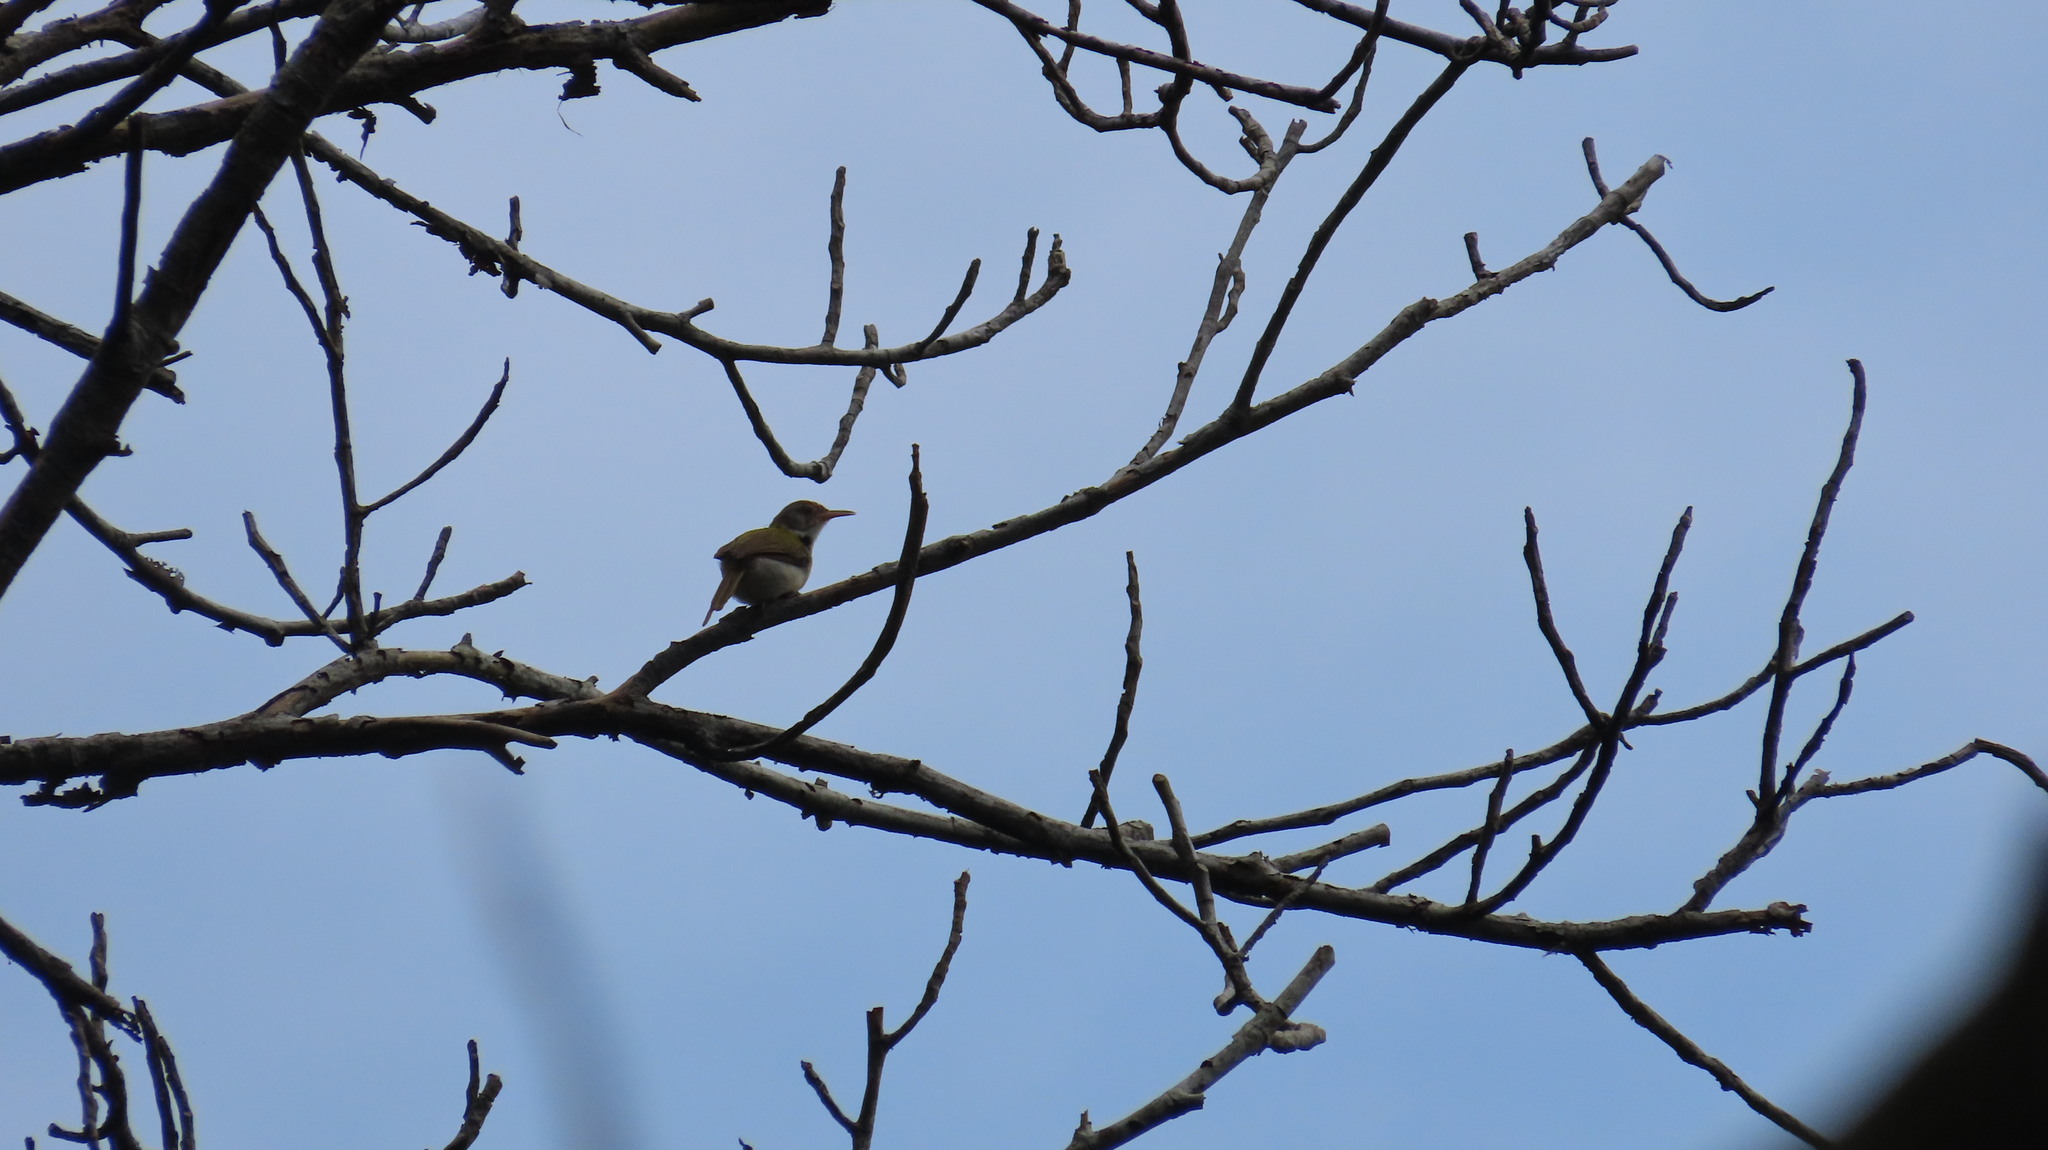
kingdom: Animalia
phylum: Chordata
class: Aves
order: Passeriformes
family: Cisticolidae
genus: Orthotomus
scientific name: Orthotomus sutorius
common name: Common tailorbird
